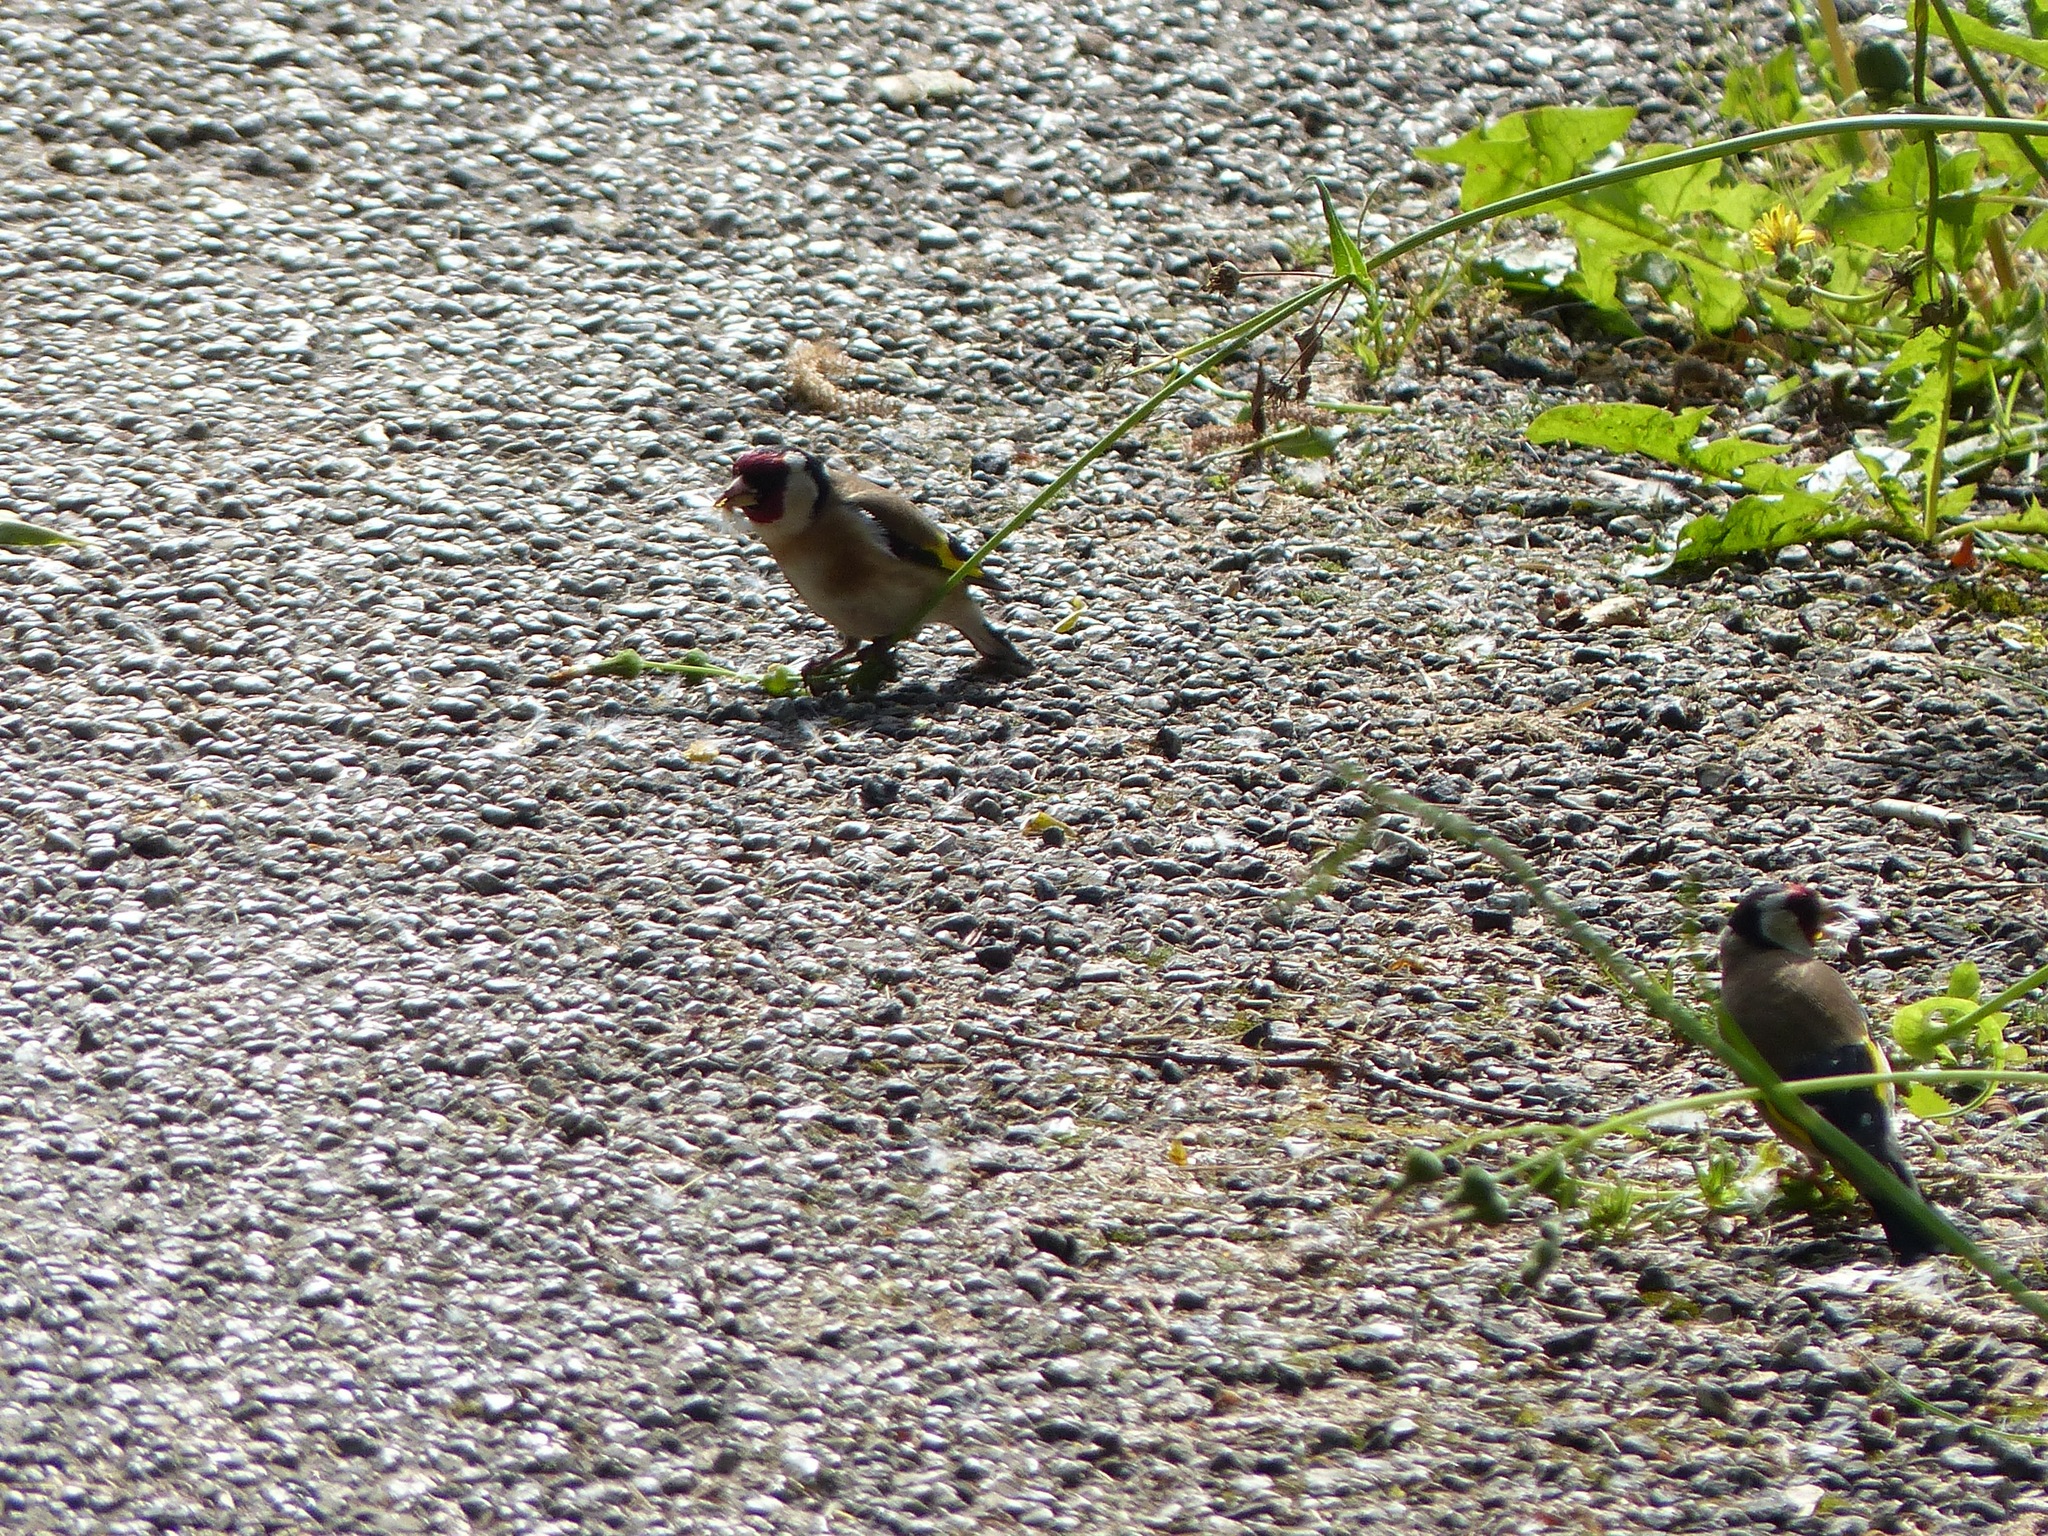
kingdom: Animalia
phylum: Chordata
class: Aves
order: Passeriformes
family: Fringillidae
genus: Carduelis
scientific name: Carduelis carduelis
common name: European goldfinch
